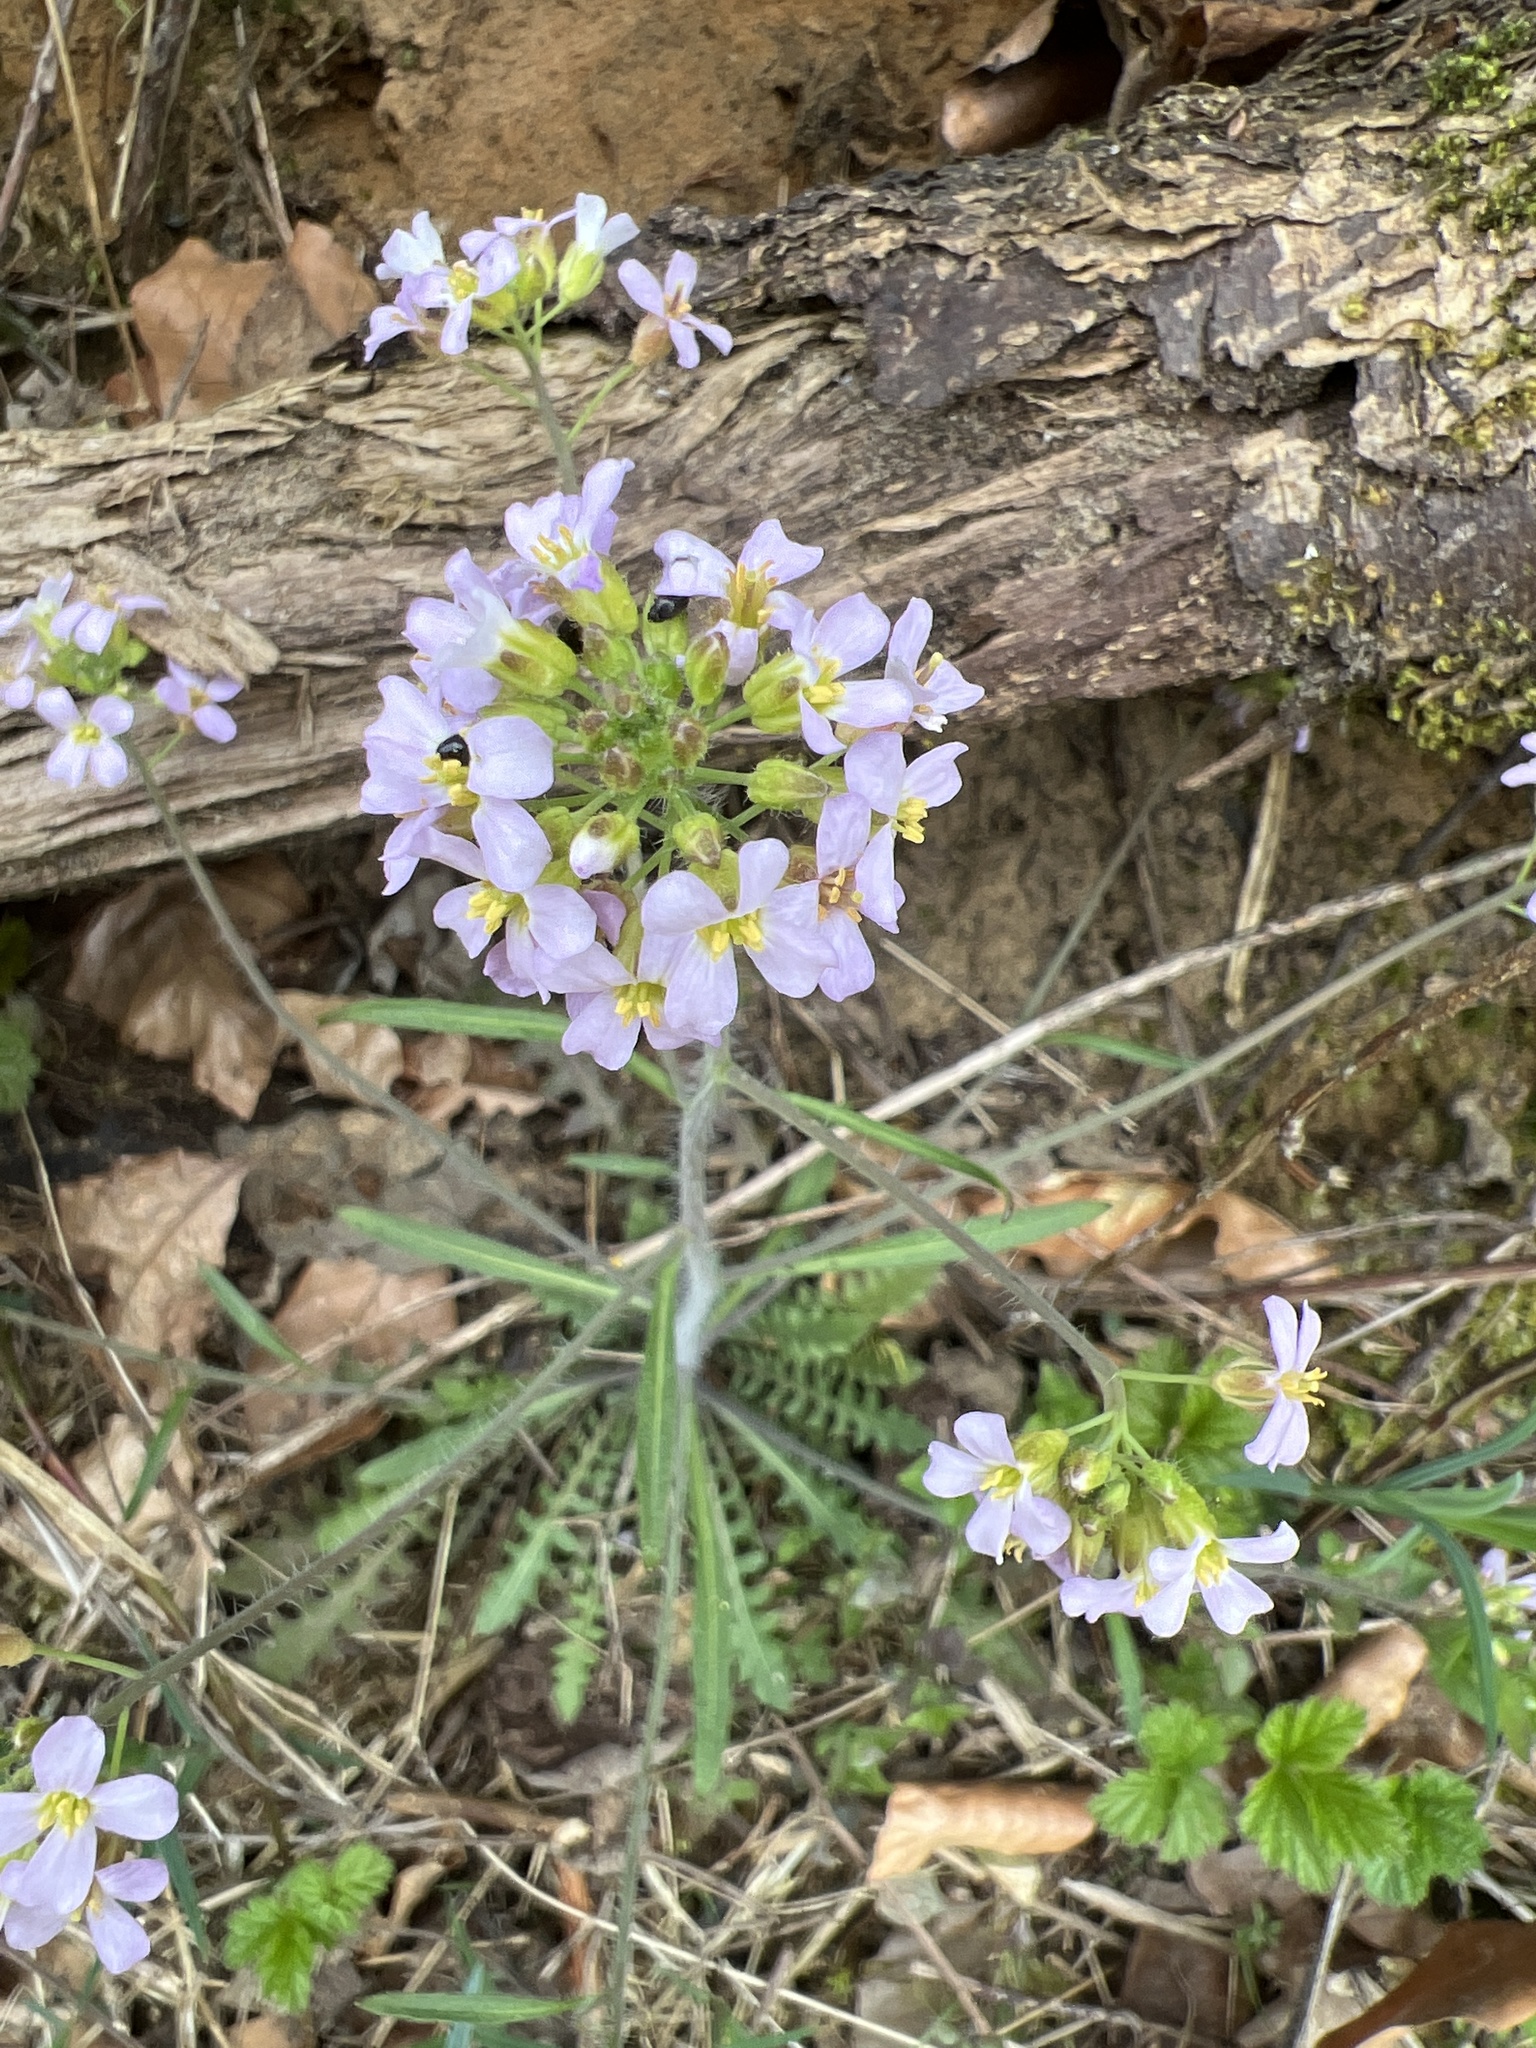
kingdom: Plantae
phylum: Tracheophyta
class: Magnoliopsida
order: Brassicales
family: Brassicaceae
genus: Arabidopsis
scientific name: Arabidopsis arenosa
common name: Sand rock-cress
